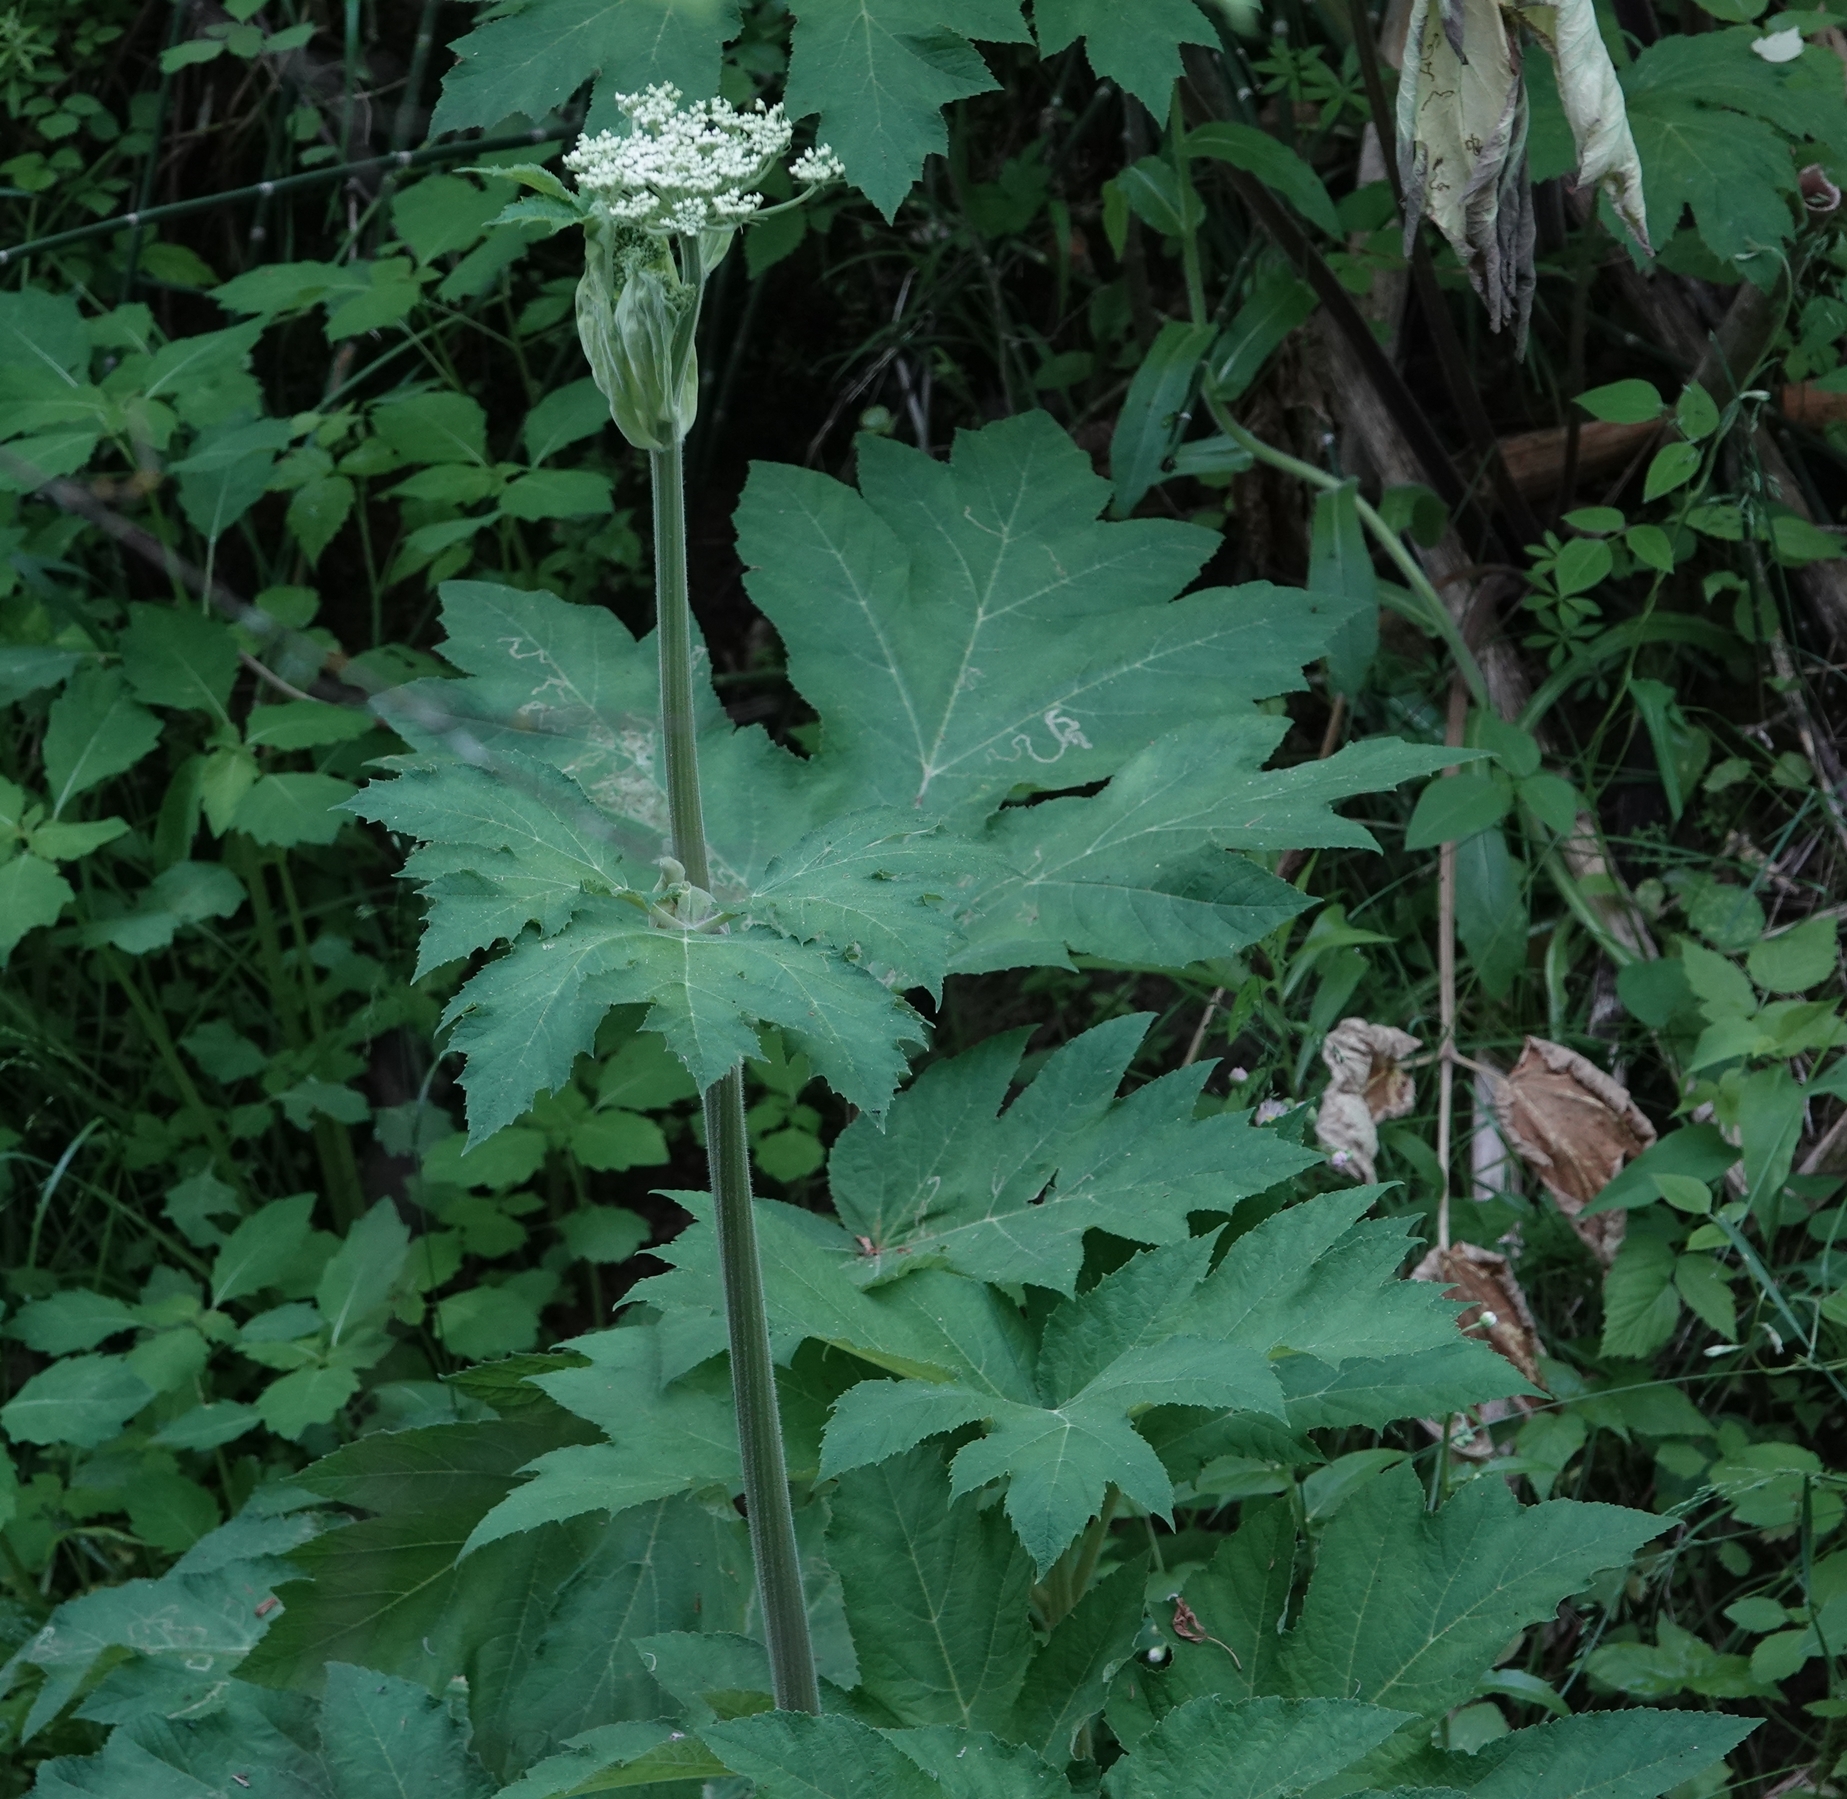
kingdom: Plantae
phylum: Tracheophyta
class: Magnoliopsida
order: Apiales
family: Apiaceae
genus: Heracleum
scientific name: Heracleum maximum
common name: American cow parsnip
